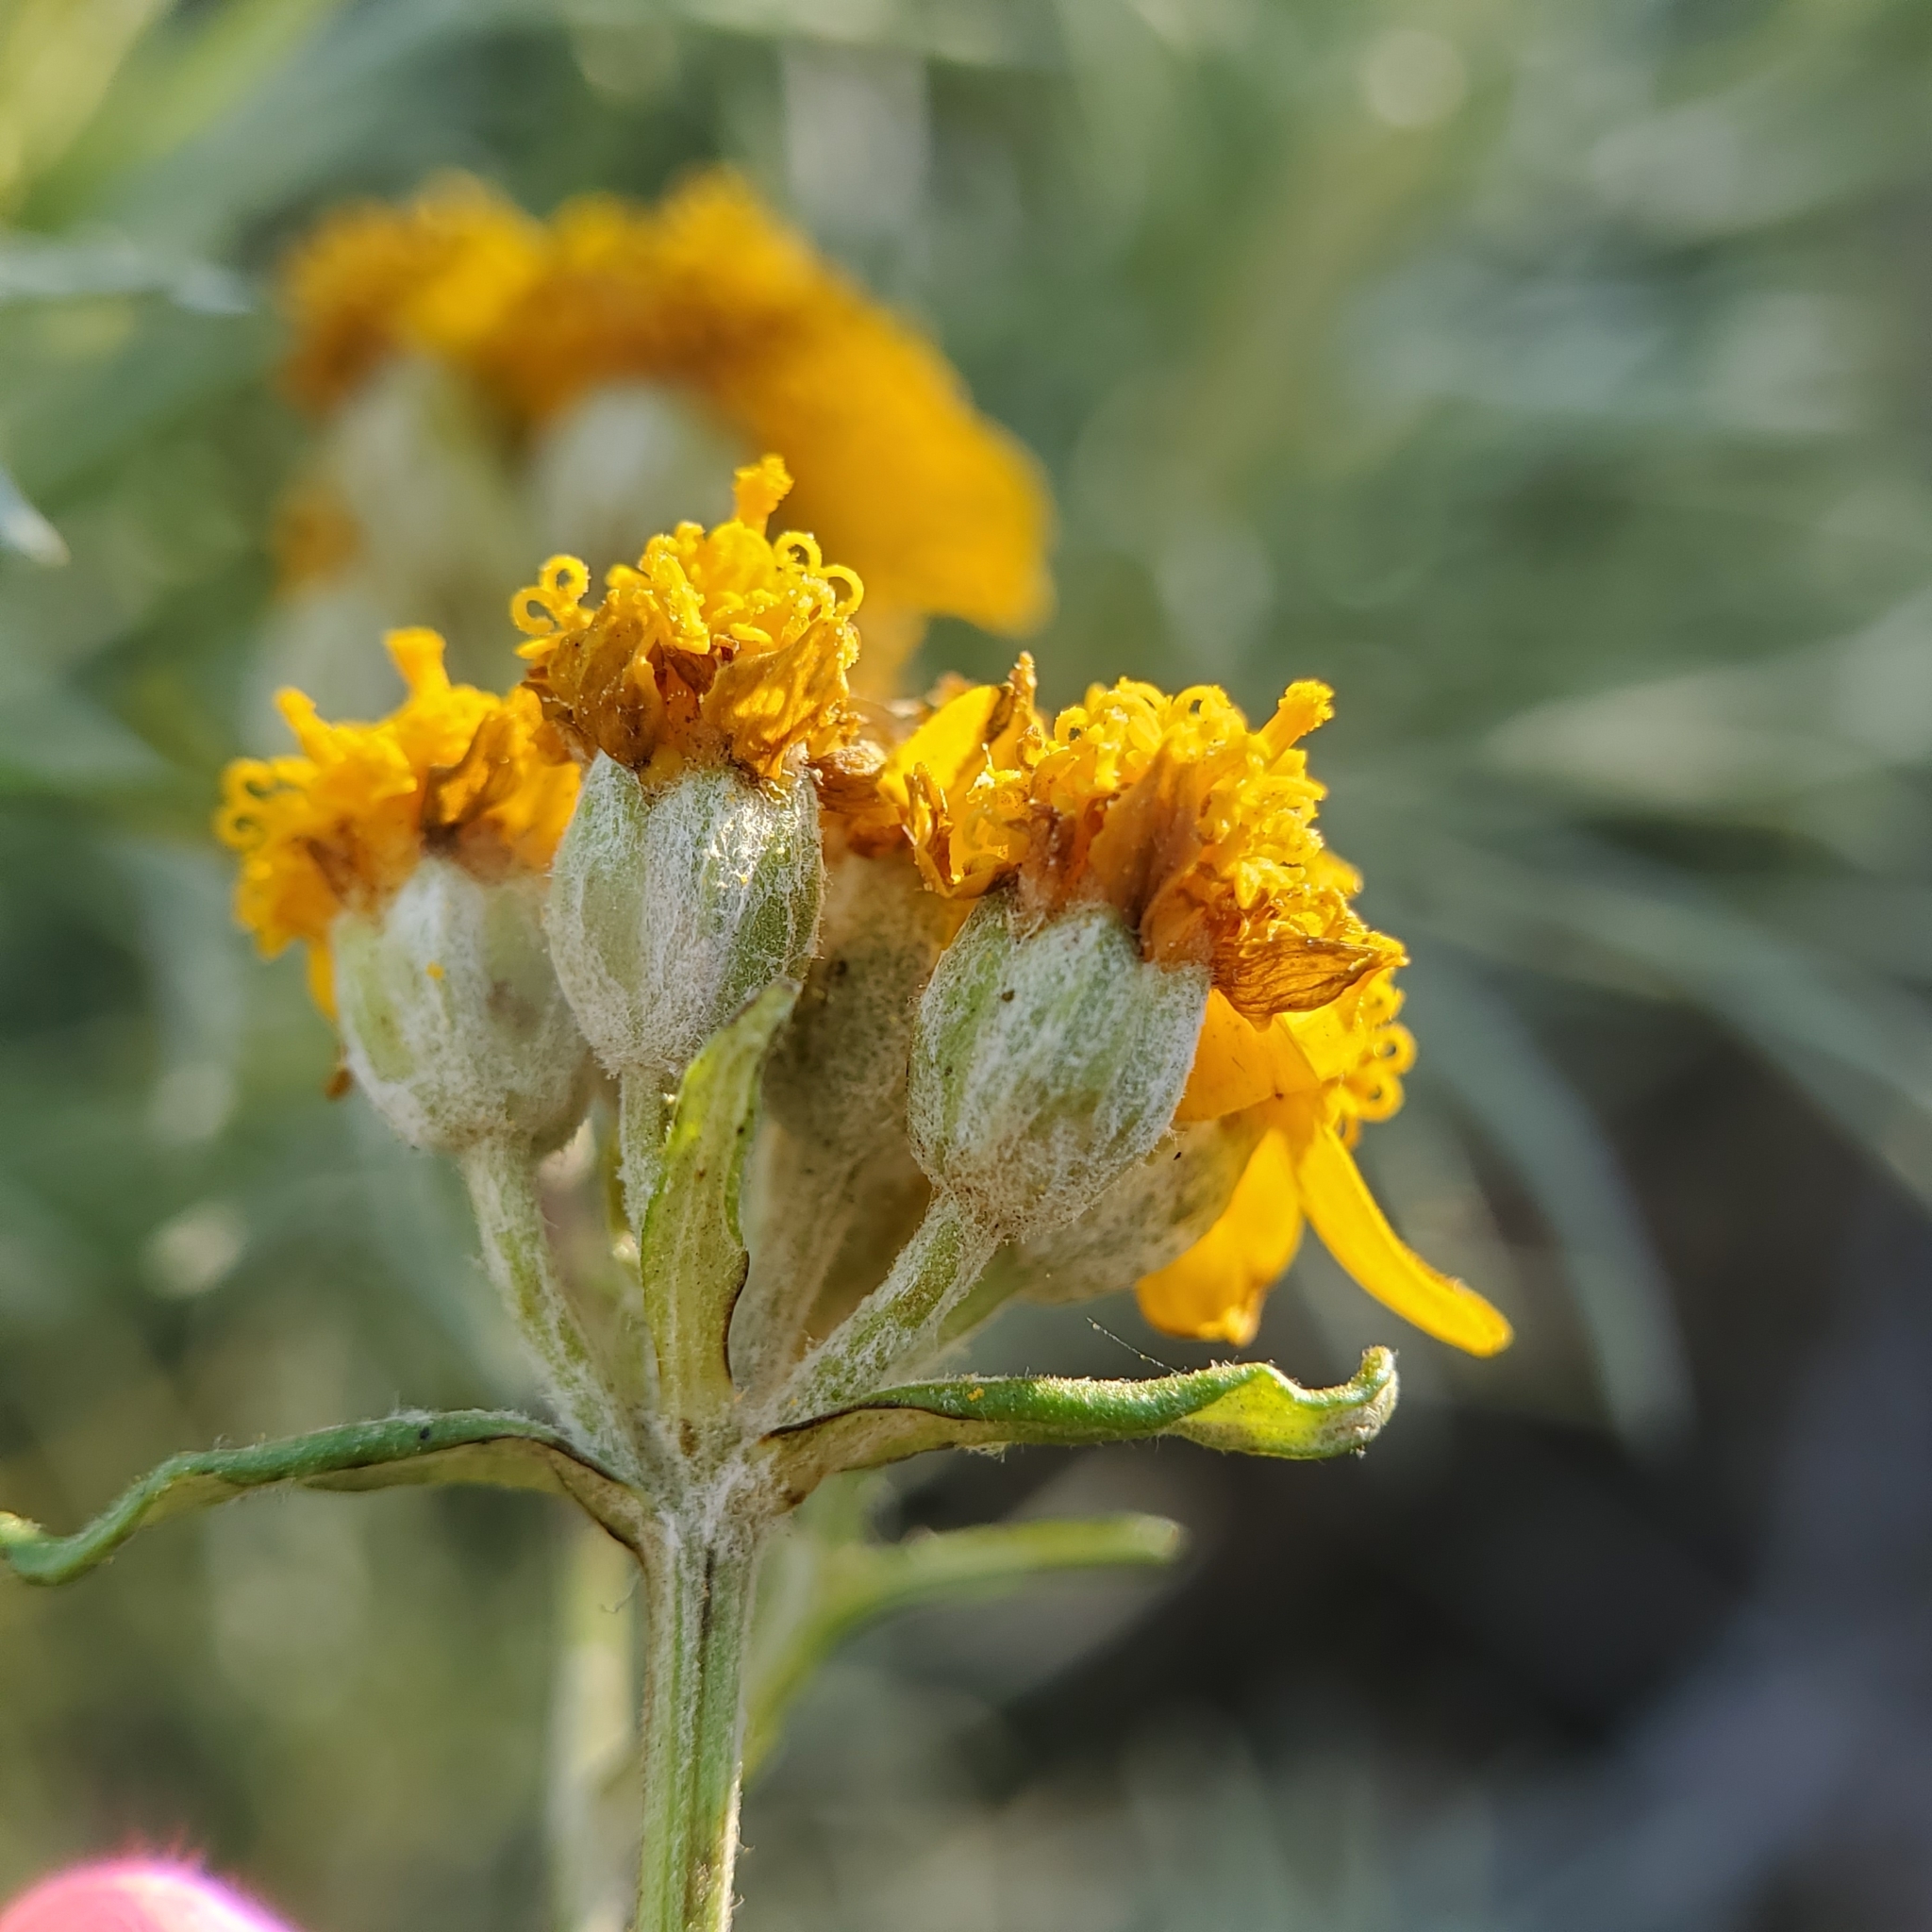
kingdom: Plantae
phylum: Tracheophyta
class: Magnoliopsida
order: Asterales
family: Asteraceae
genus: Eriophyllum
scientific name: Eriophyllum confertiflorum
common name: Golden-yarrow
